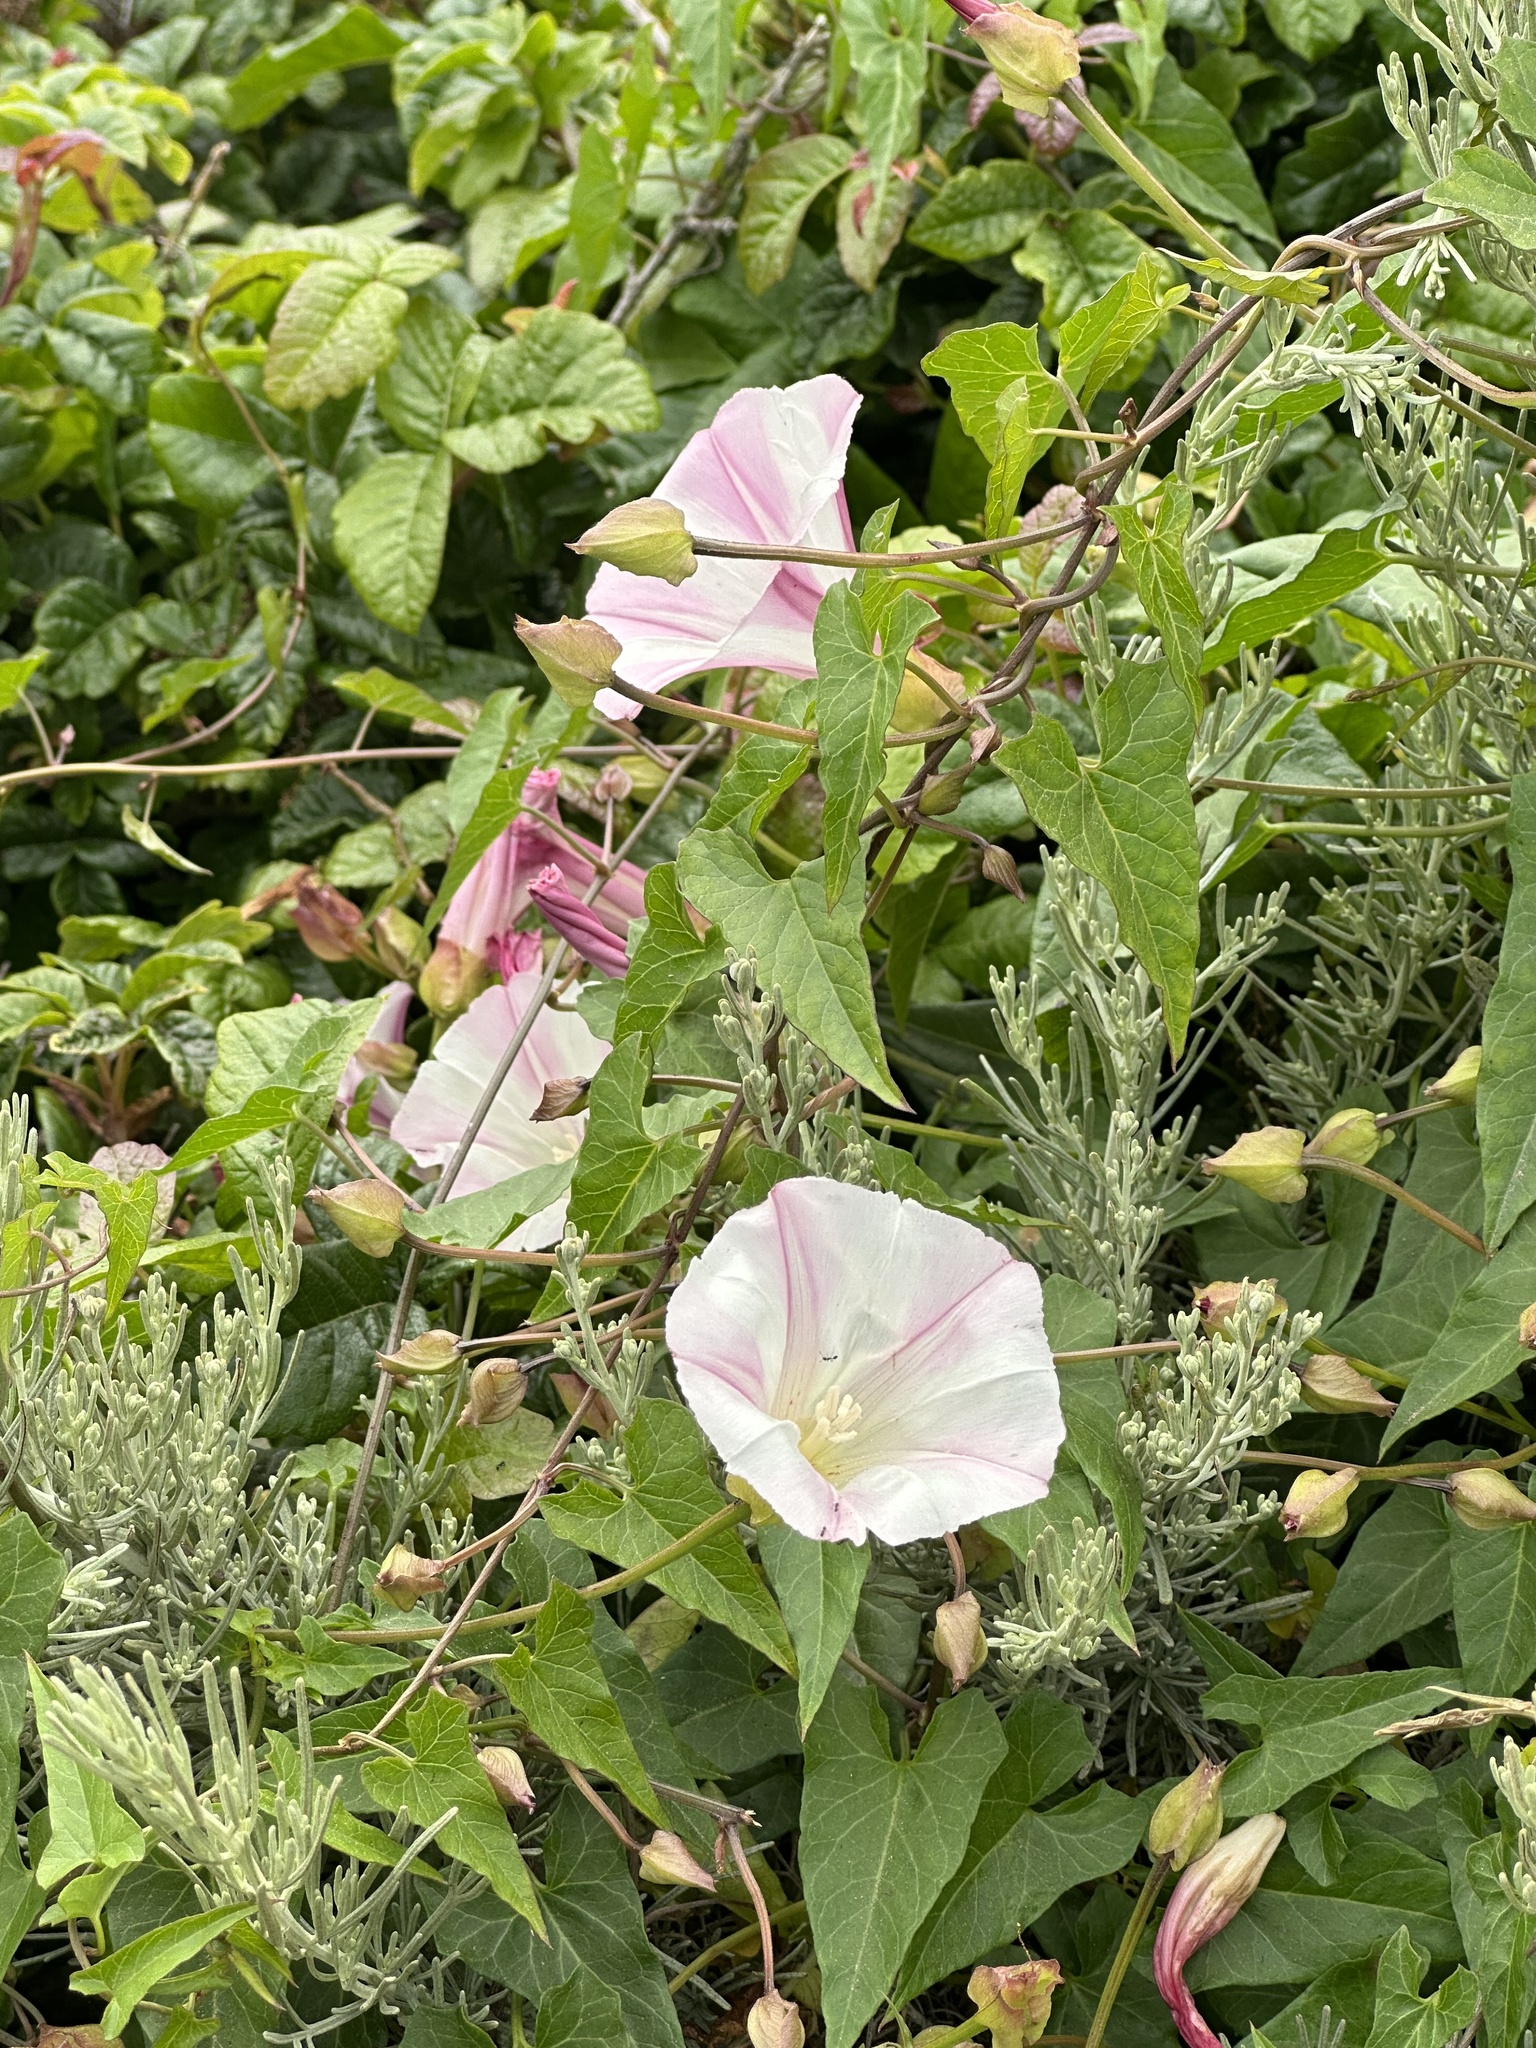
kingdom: Plantae
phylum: Tracheophyta
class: Magnoliopsida
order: Solanales
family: Convolvulaceae
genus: Calystegia
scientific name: Calystegia macrostegia
